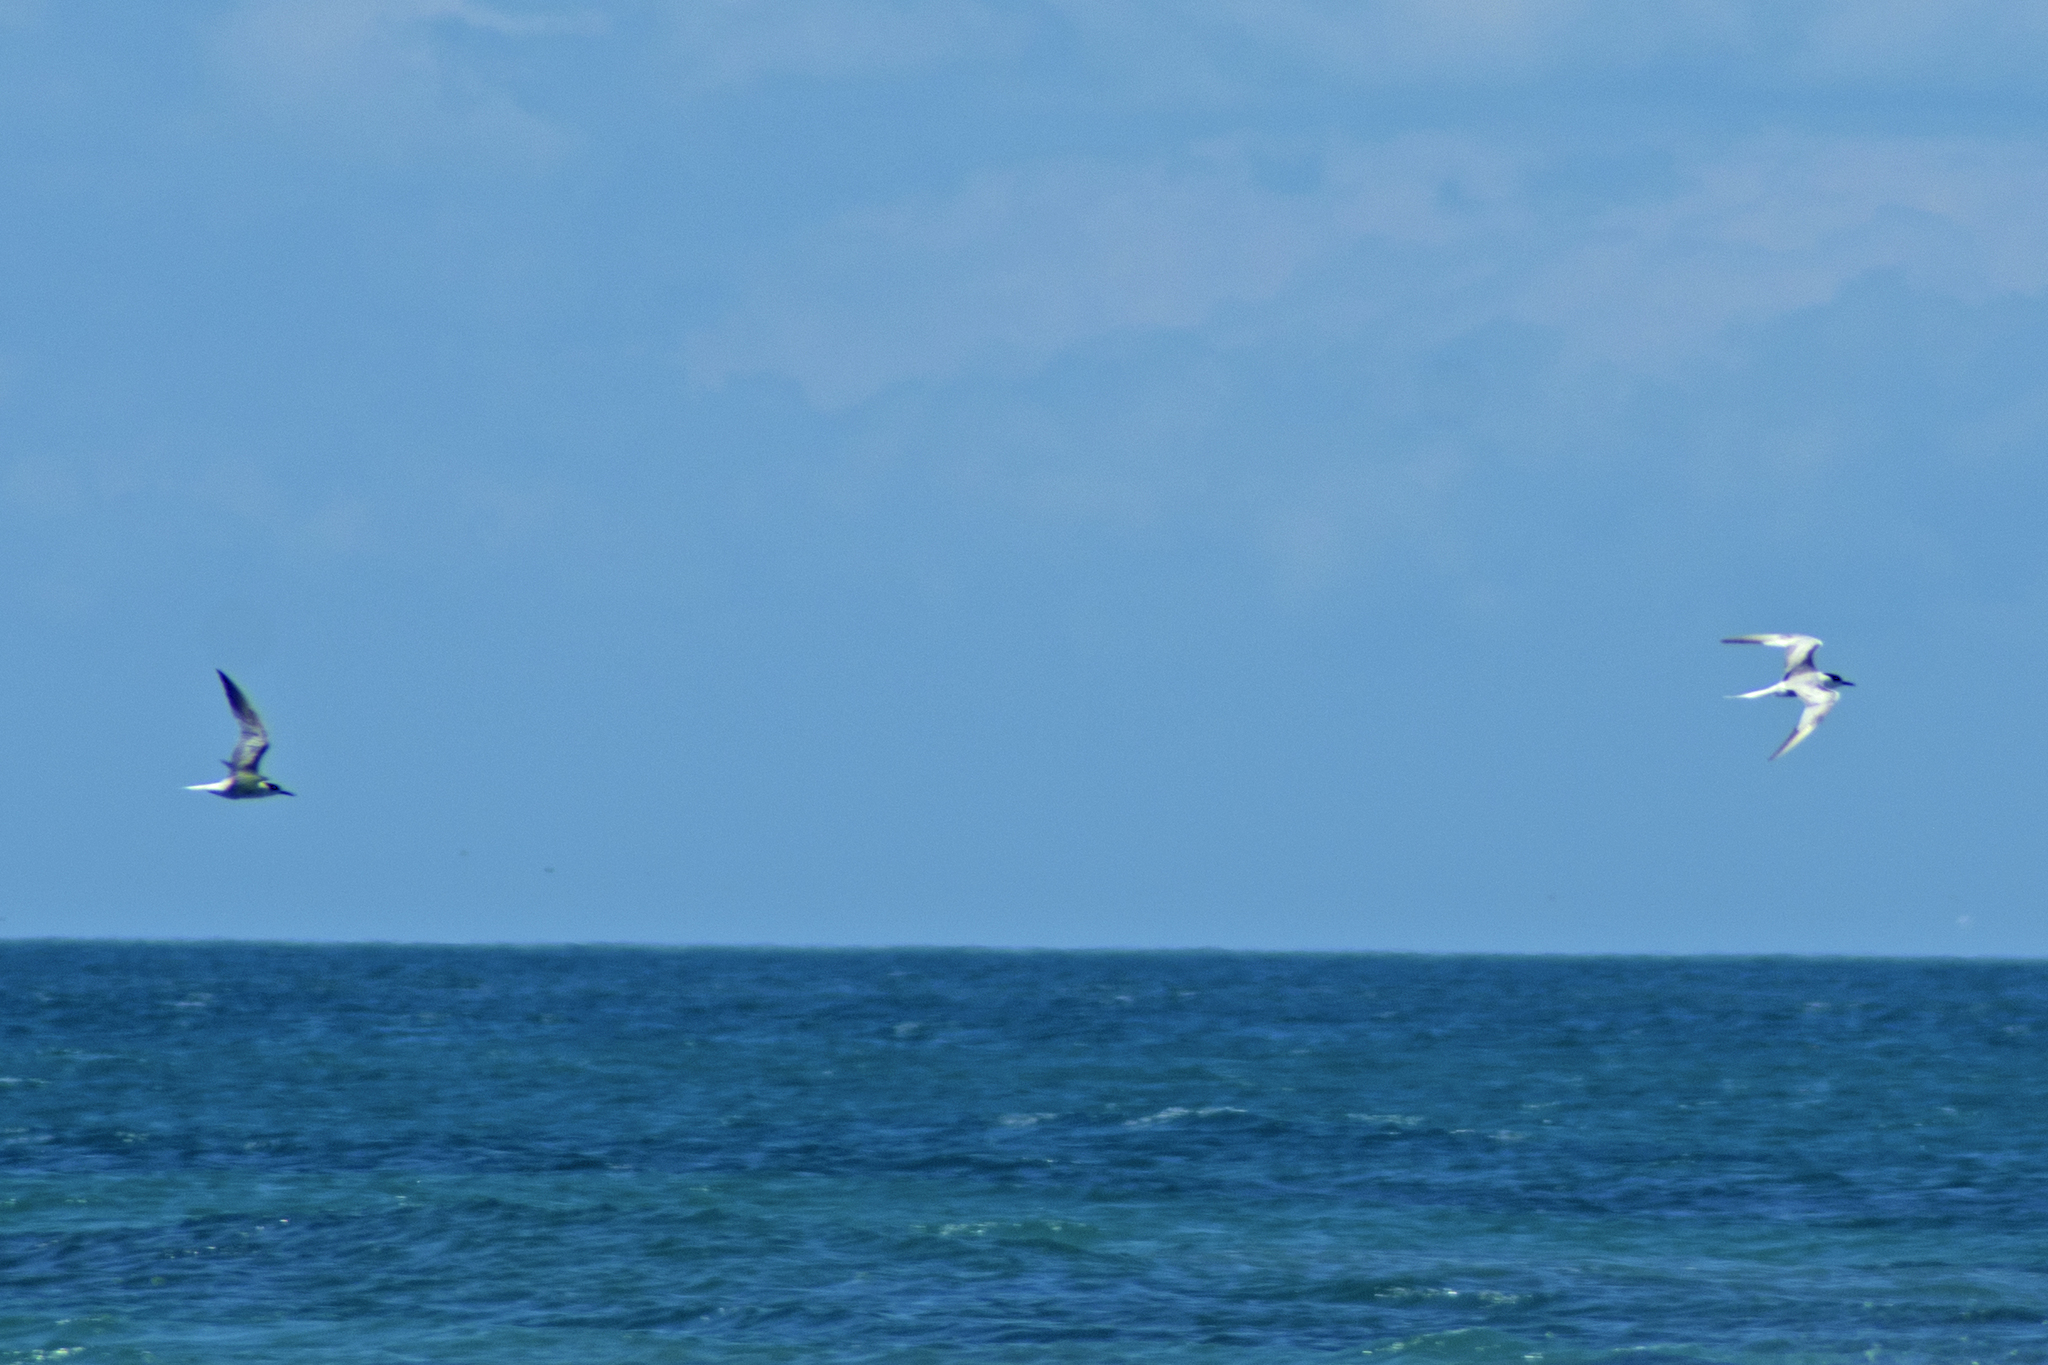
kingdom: Animalia
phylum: Chordata
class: Aves
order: Charadriiformes
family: Laridae
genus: Sterna
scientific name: Sterna hirundo
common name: Common tern
